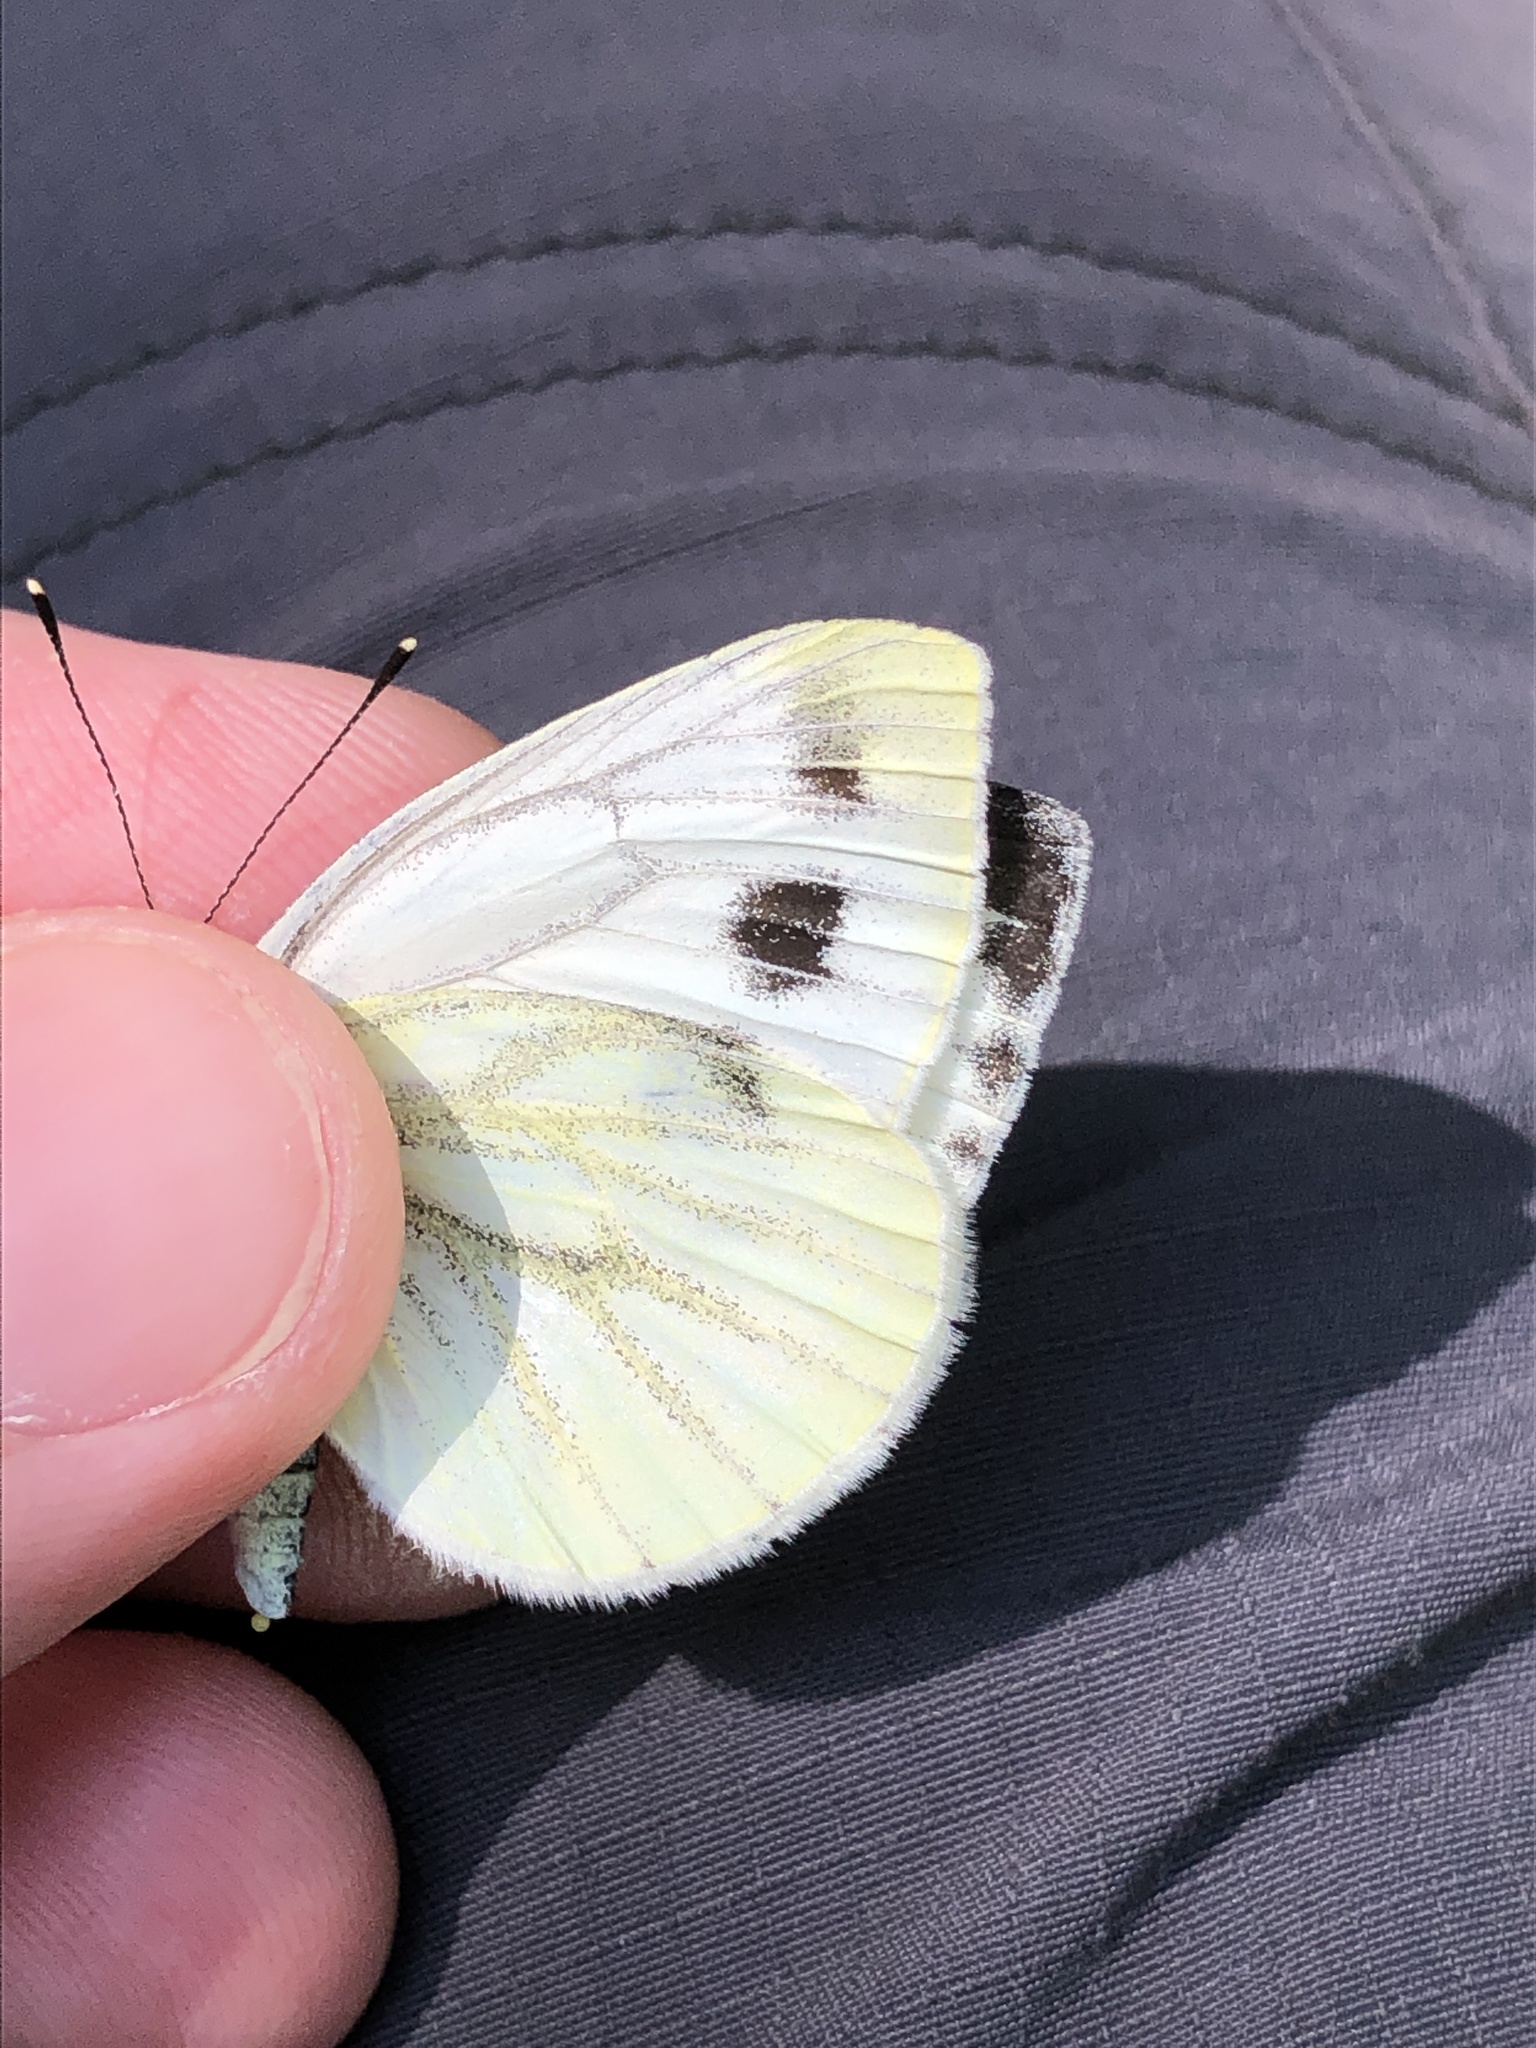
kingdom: Animalia
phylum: Arthropoda
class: Insecta
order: Lepidoptera
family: Pieridae
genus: Pieris
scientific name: Pieris napi
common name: Green-veined white
